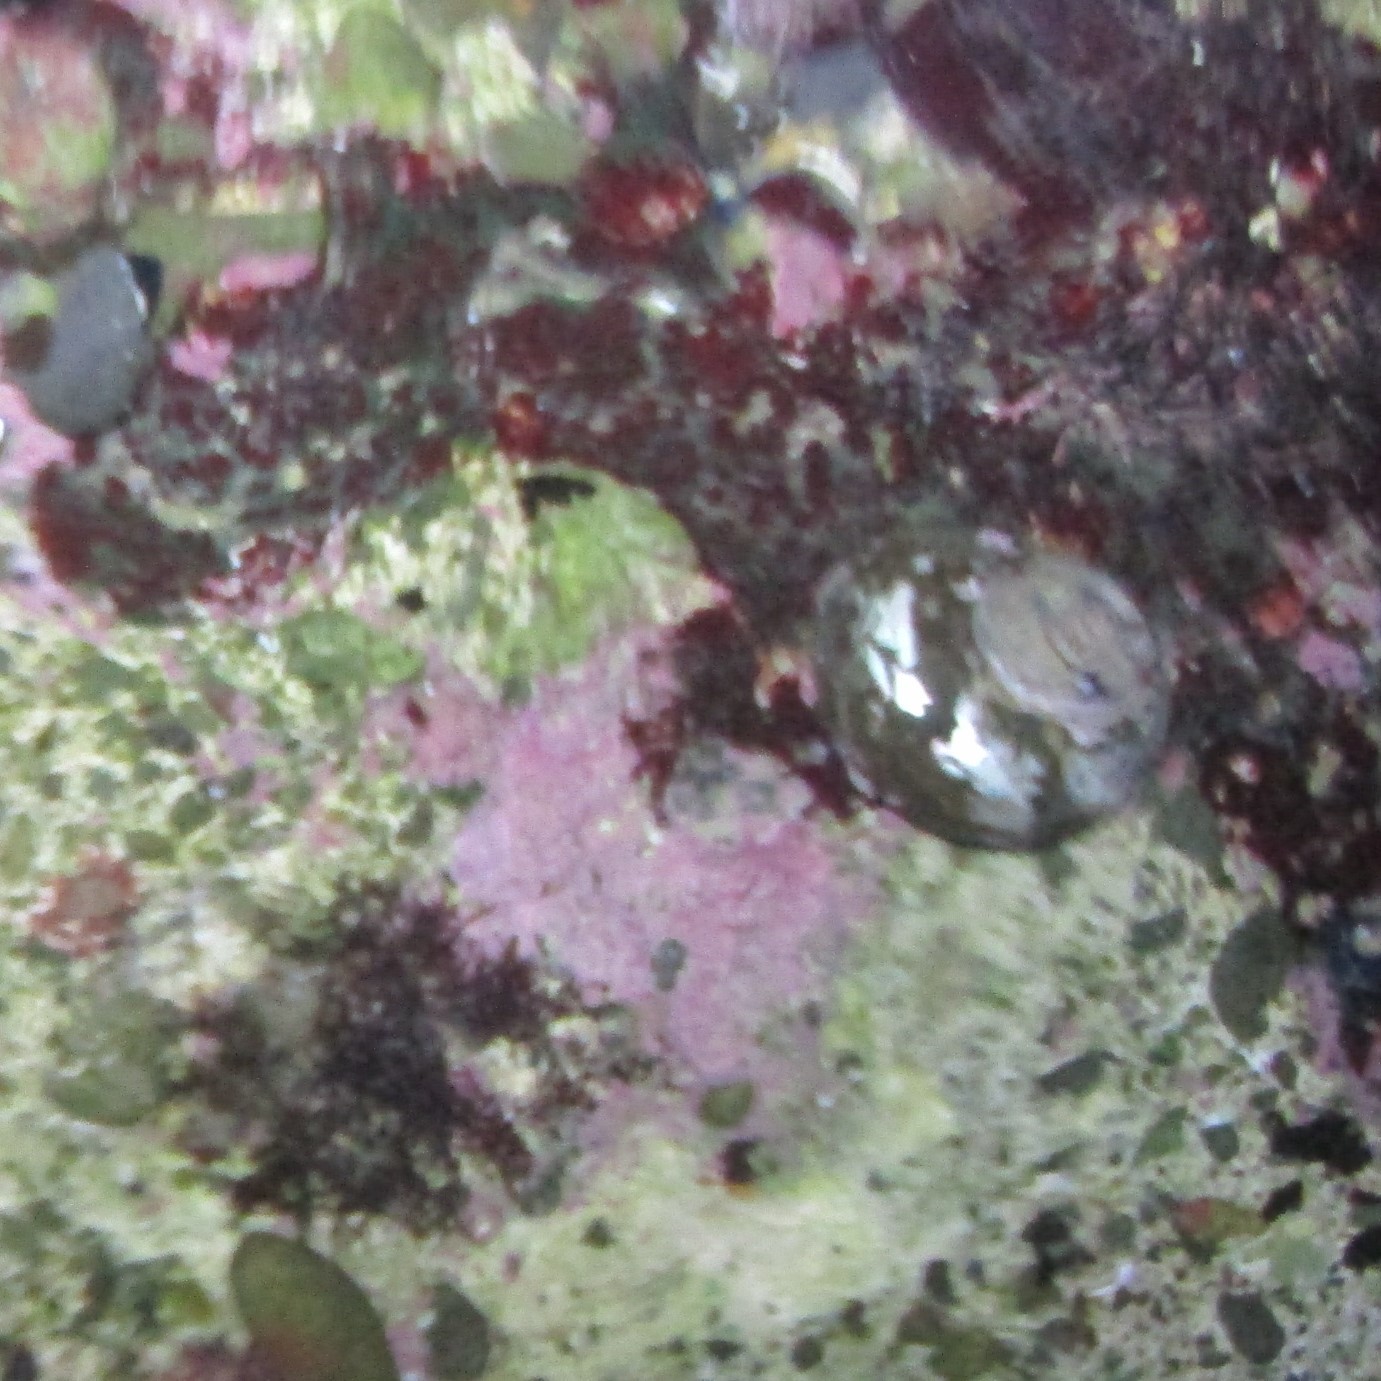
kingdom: Animalia
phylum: Mollusca
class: Gastropoda
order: Trochida
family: Turbinidae
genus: Lunella
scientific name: Lunella smaragda
